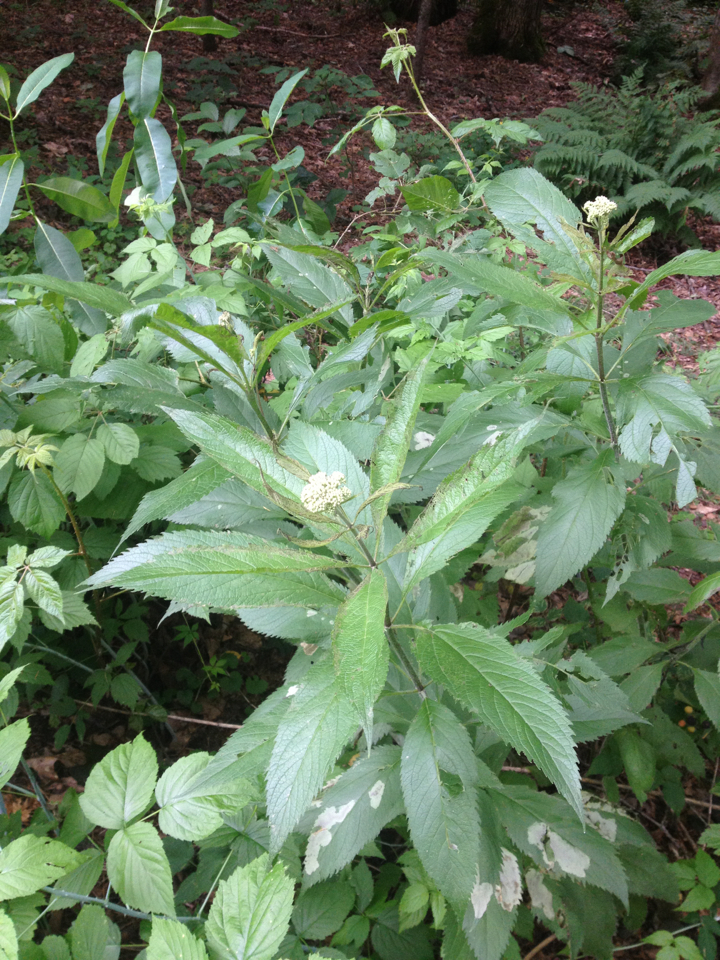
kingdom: Plantae
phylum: Tracheophyta
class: Magnoliopsida
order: Asterales
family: Asteraceae
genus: Eutrochium
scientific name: Eutrochium
